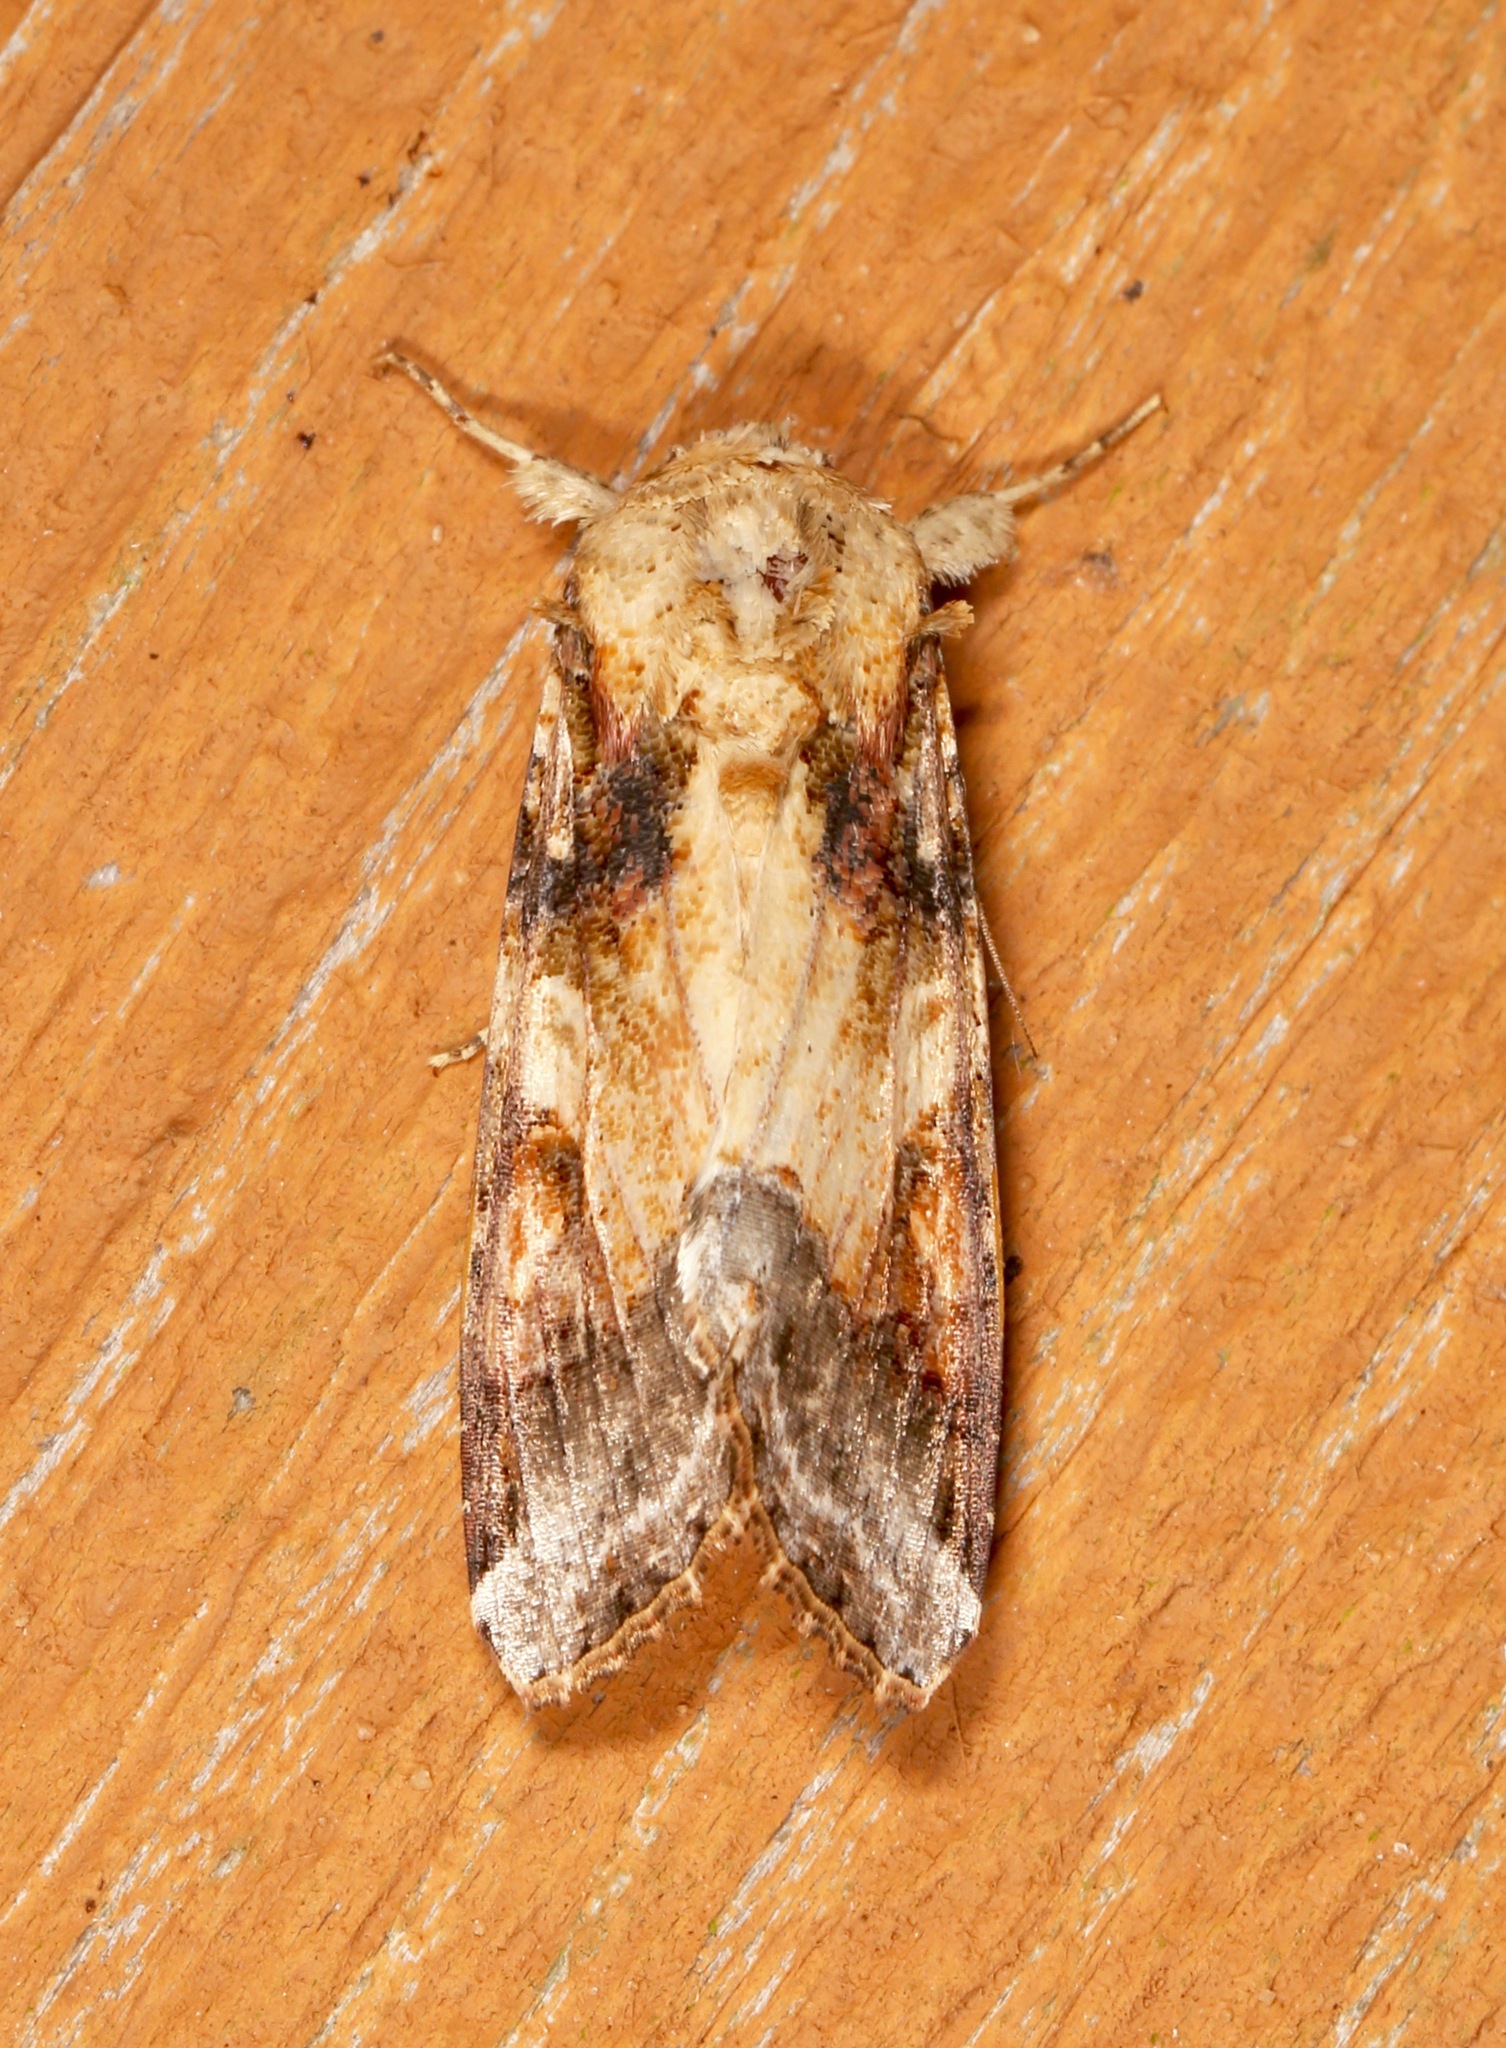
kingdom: Animalia
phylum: Arthropoda
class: Insecta
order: Lepidoptera
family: Noctuidae
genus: Spodoptera
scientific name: Spodoptera latifascia
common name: Velvet armyworm moth
